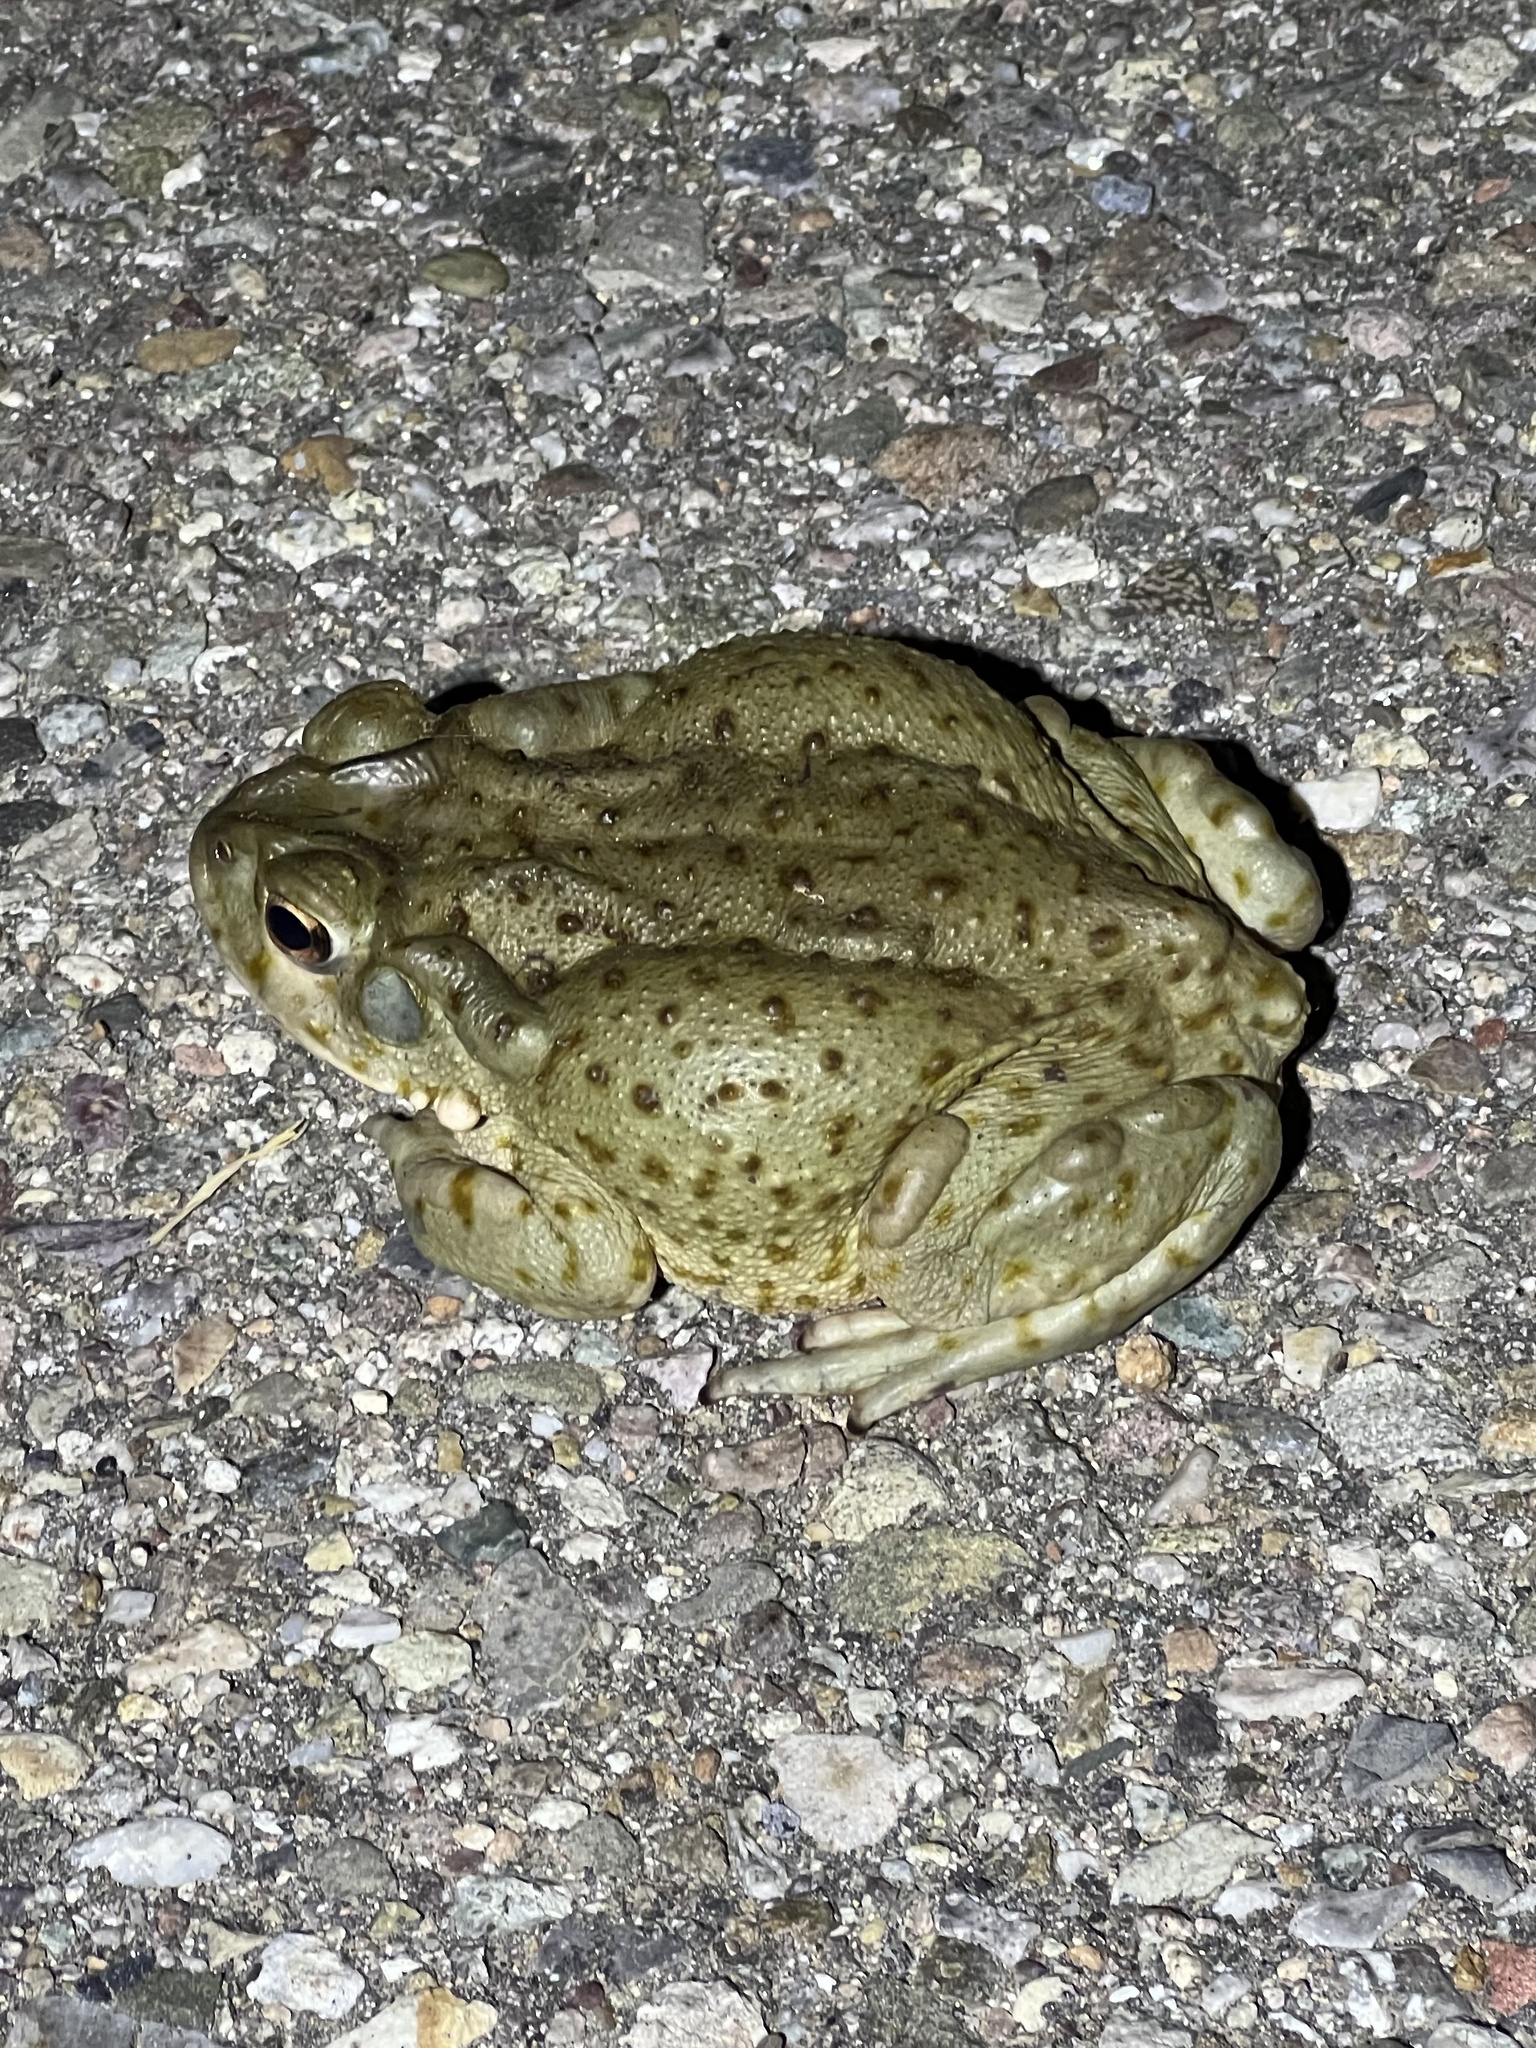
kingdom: Animalia
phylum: Chordata
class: Amphibia
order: Anura
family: Bufonidae
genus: Incilius
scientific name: Incilius alvarius
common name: Sonoran desert toad
